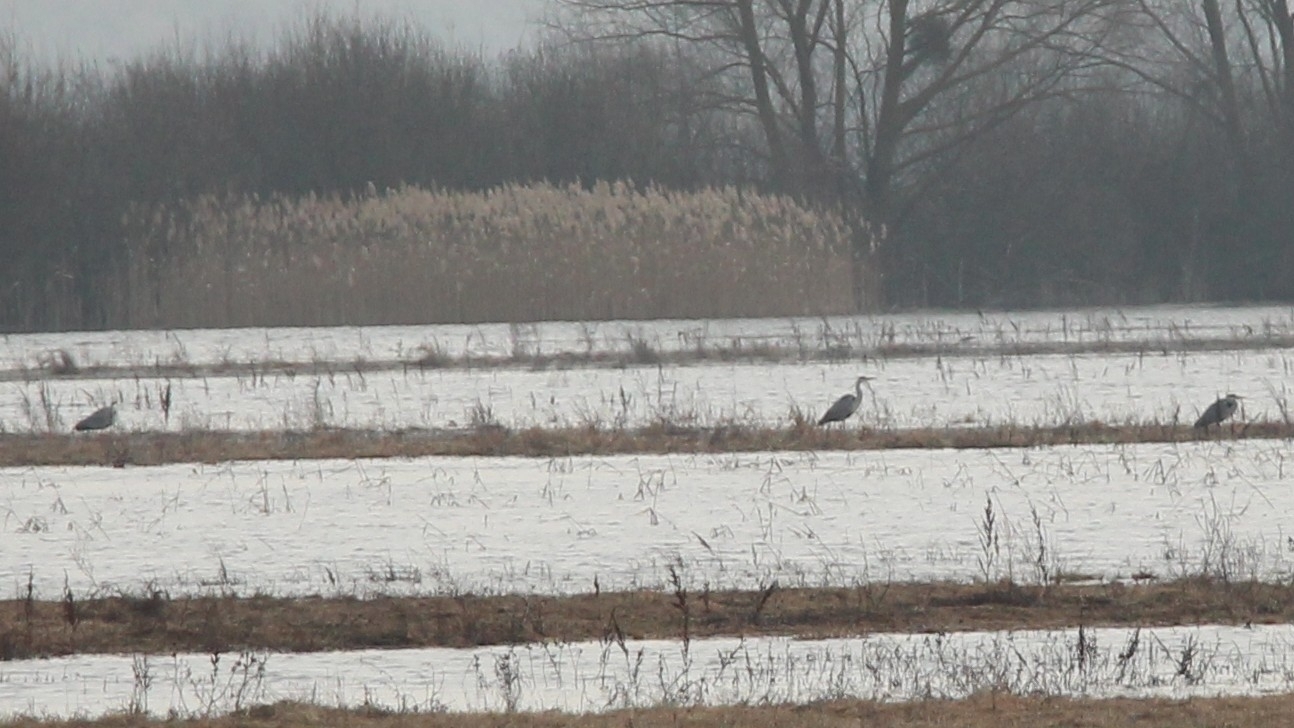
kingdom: Animalia
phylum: Chordata
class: Aves
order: Pelecaniformes
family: Ardeidae
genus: Ardea
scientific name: Ardea cinerea
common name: Grey heron
